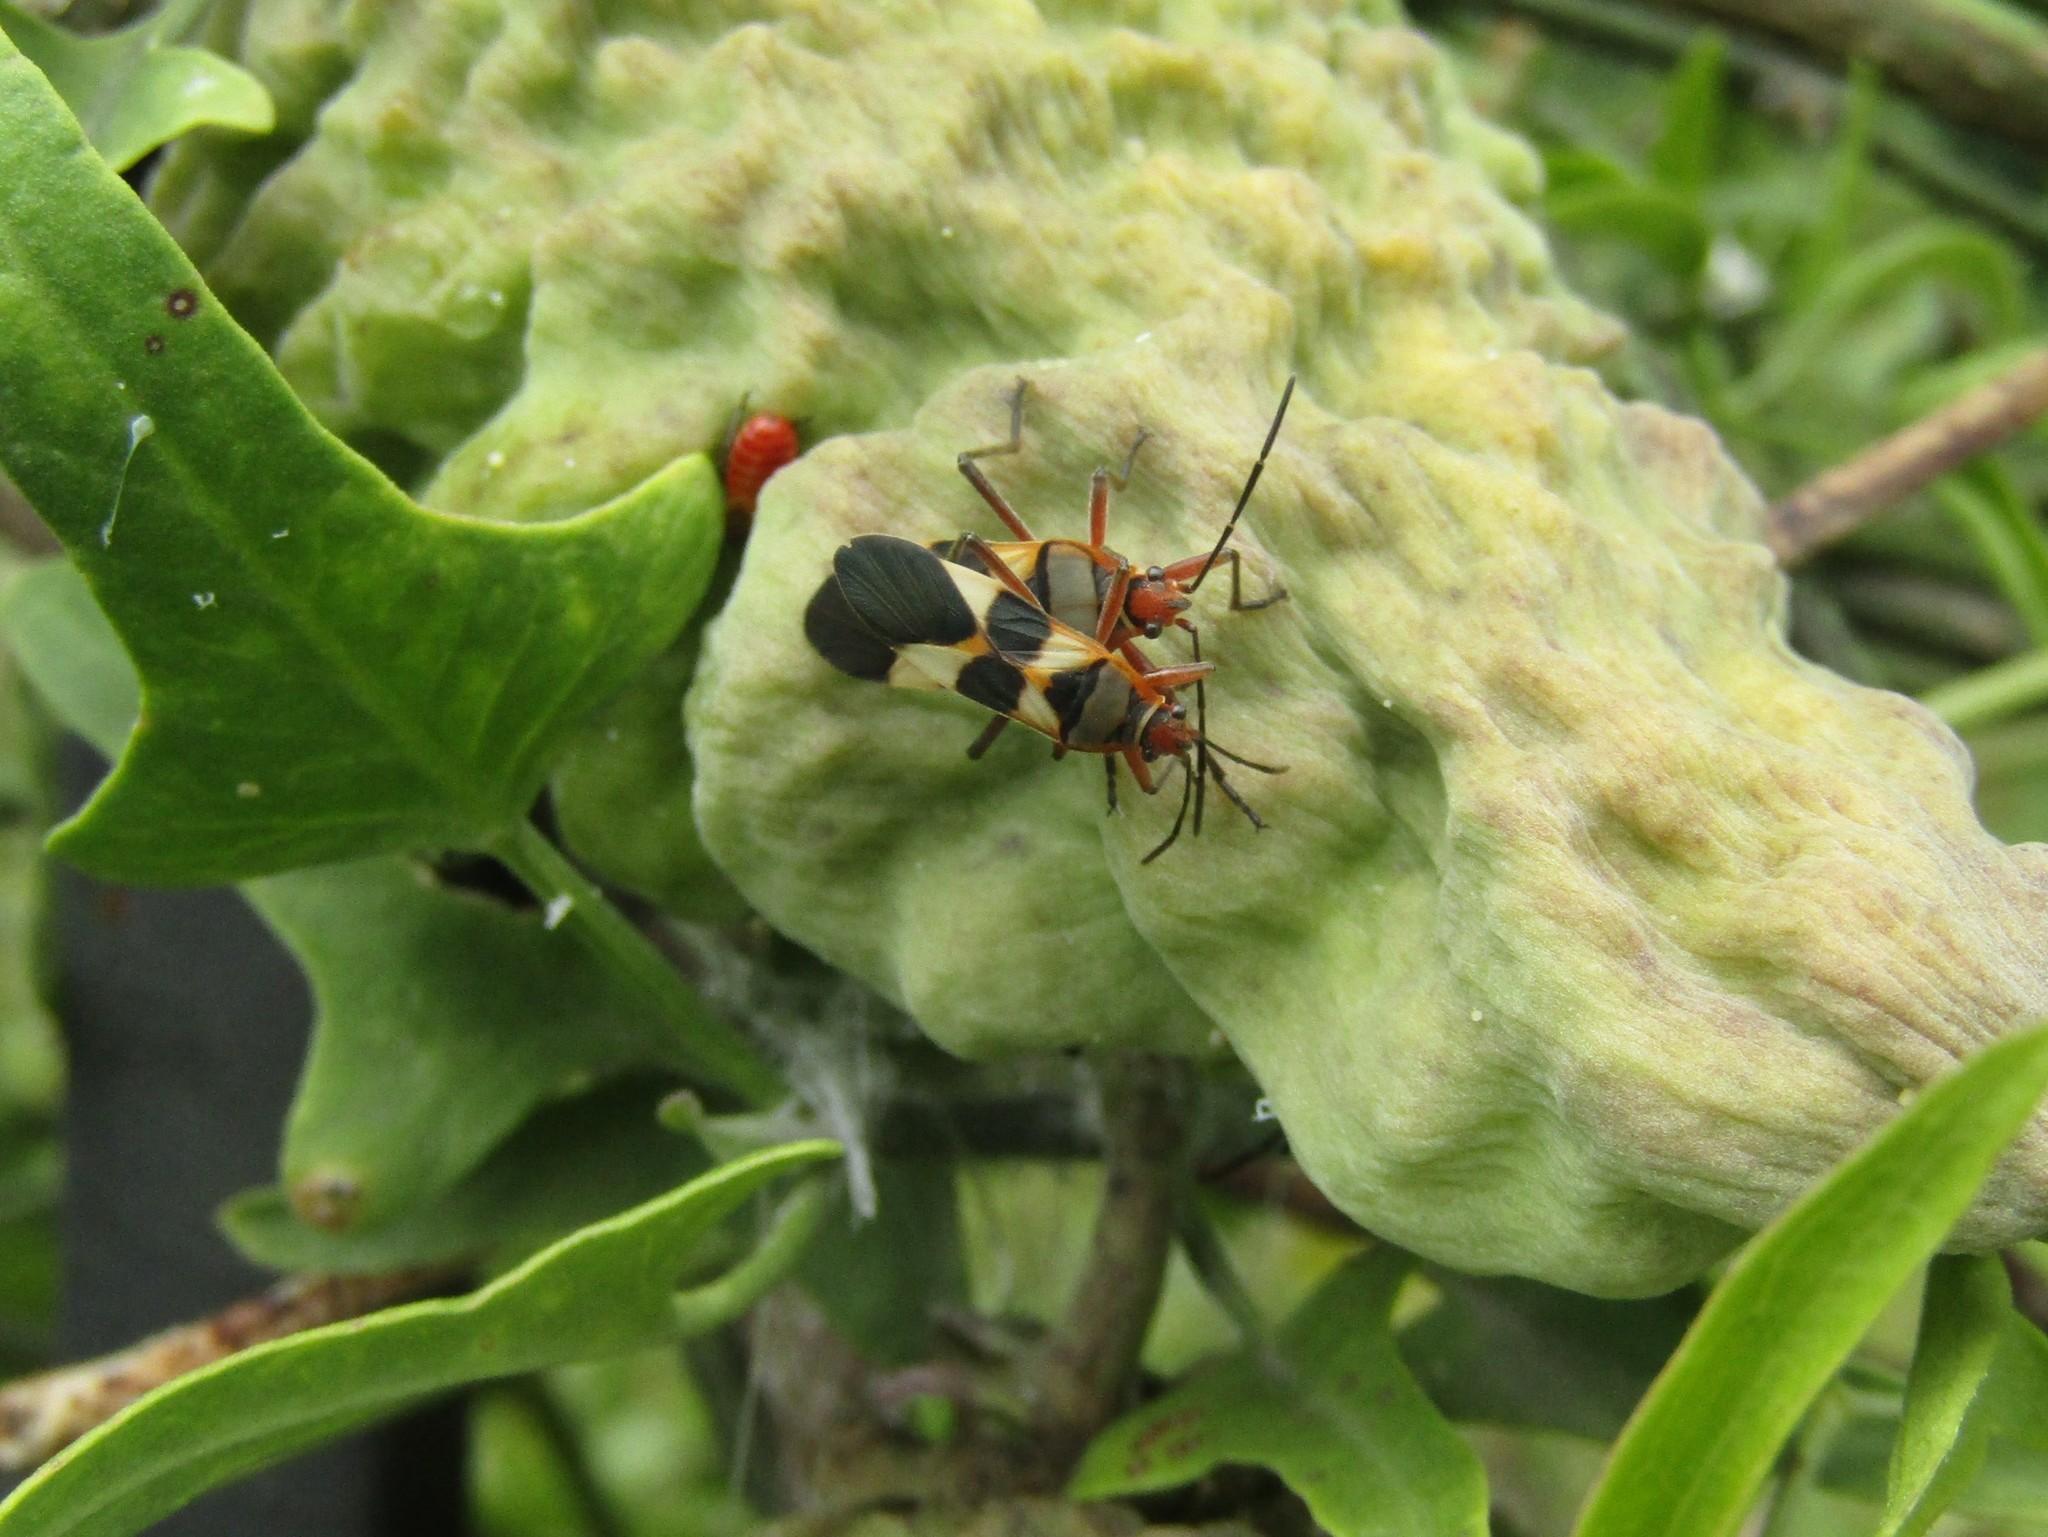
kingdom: Animalia
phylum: Arthropoda
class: Insecta
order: Hemiptera
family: Lygaeidae
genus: Oncopeltus
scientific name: Oncopeltus unifasciatellus
